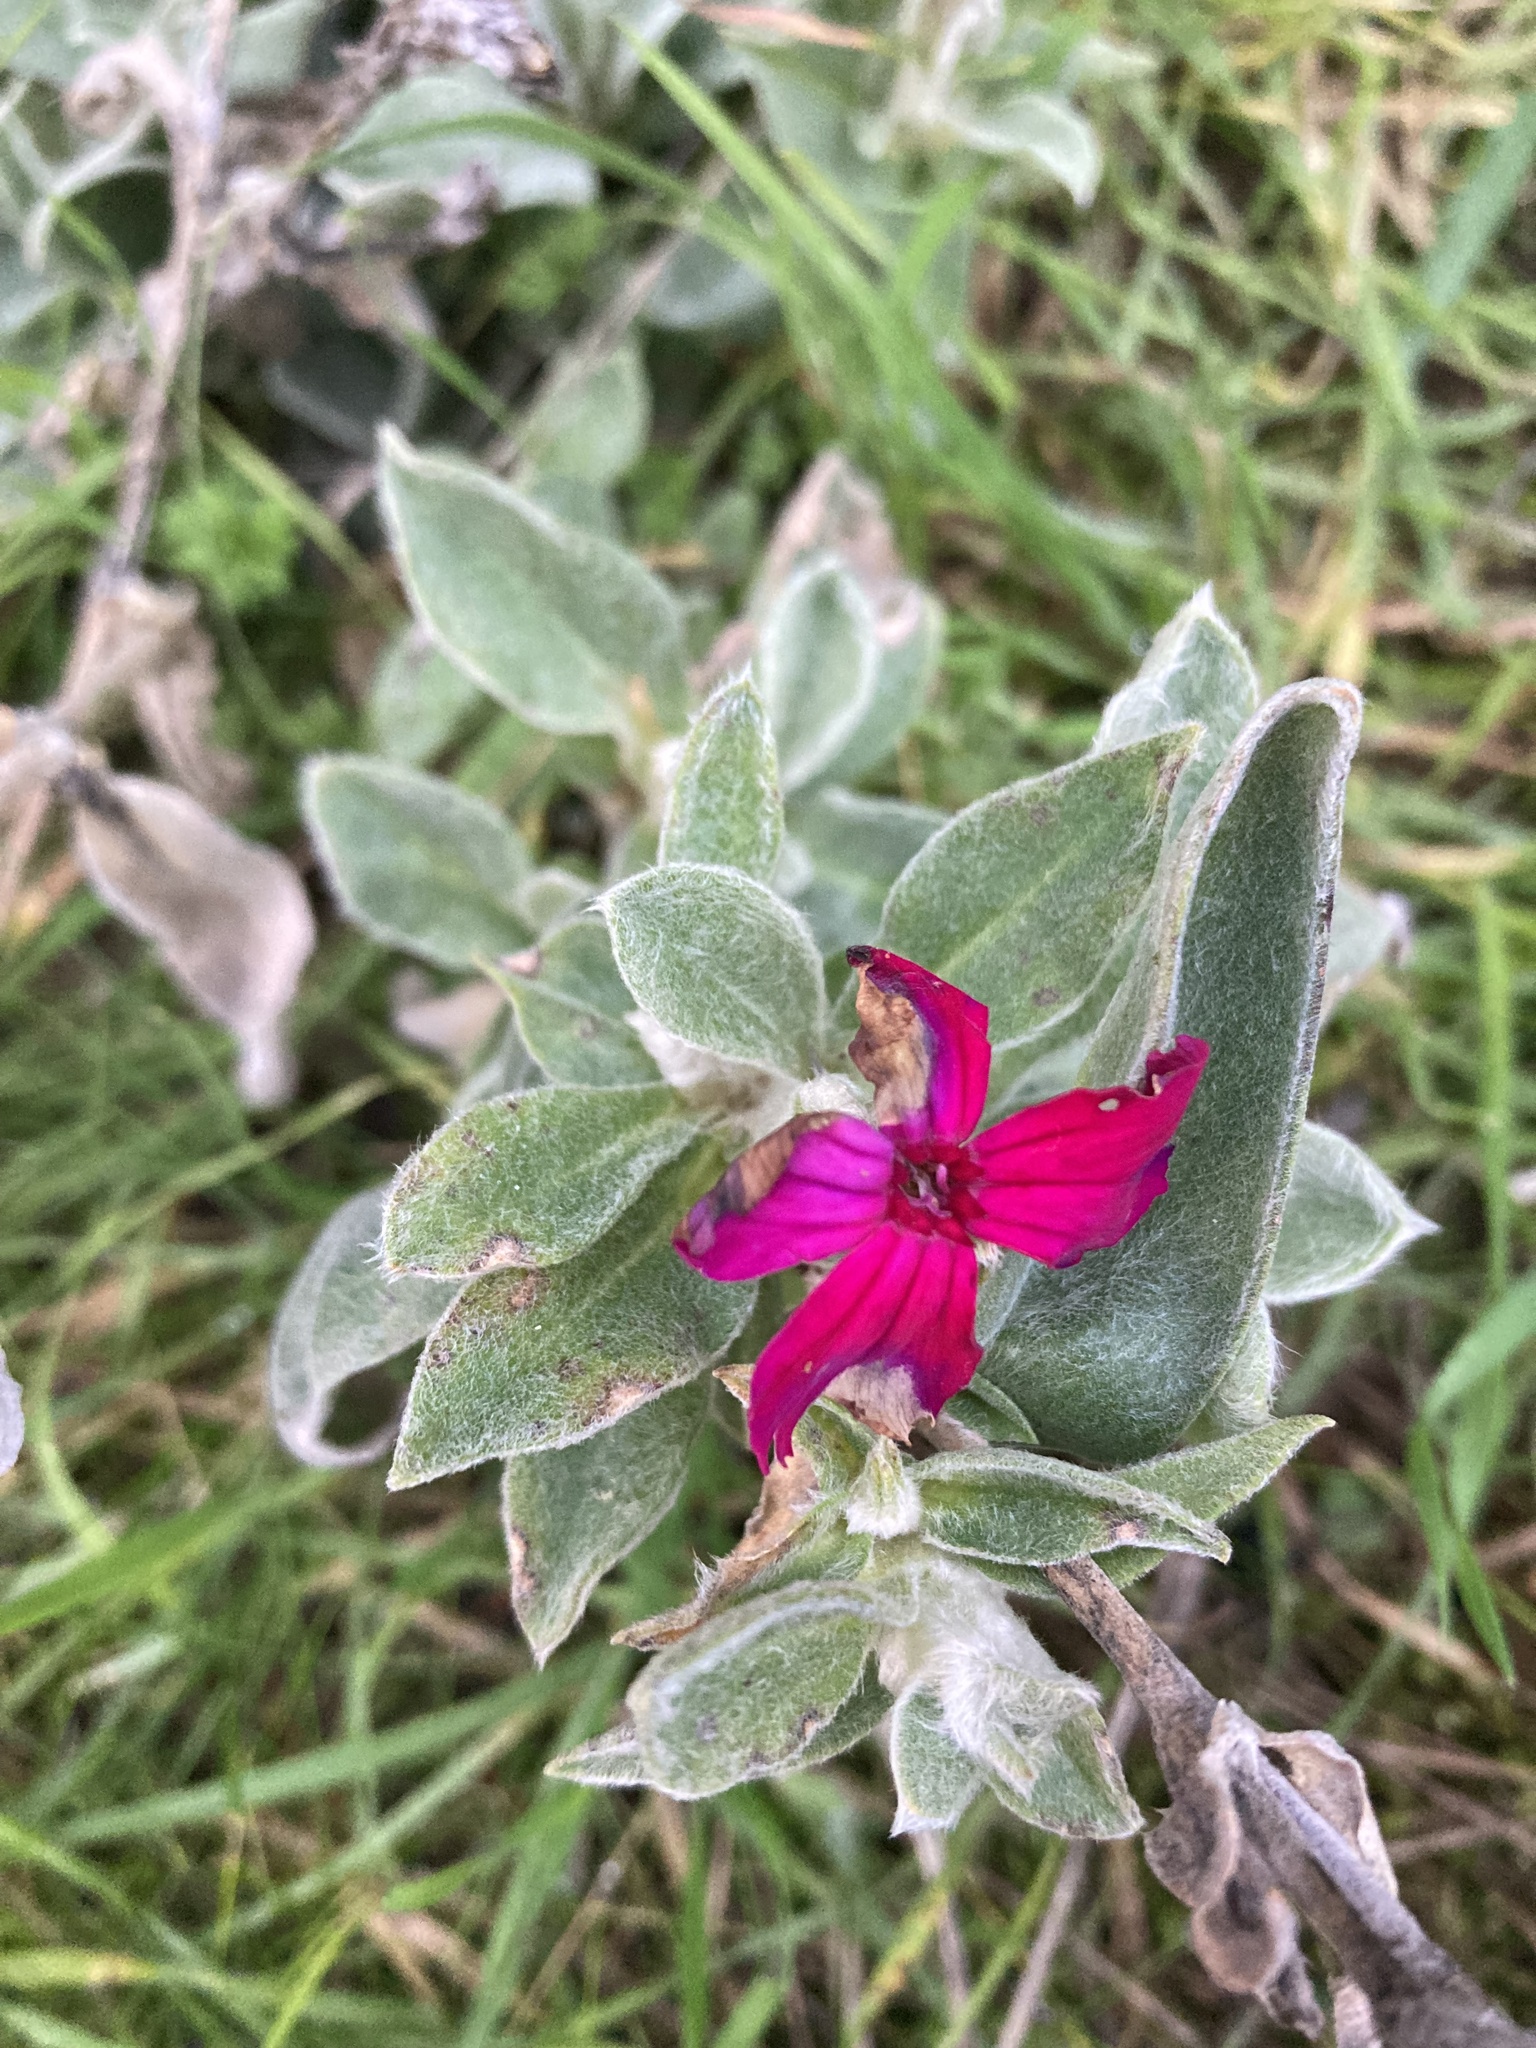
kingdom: Plantae
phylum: Tracheophyta
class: Magnoliopsida
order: Caryophyllales
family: Caryophyllaceae
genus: Silene
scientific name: Silene coronaria
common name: Rose campion
